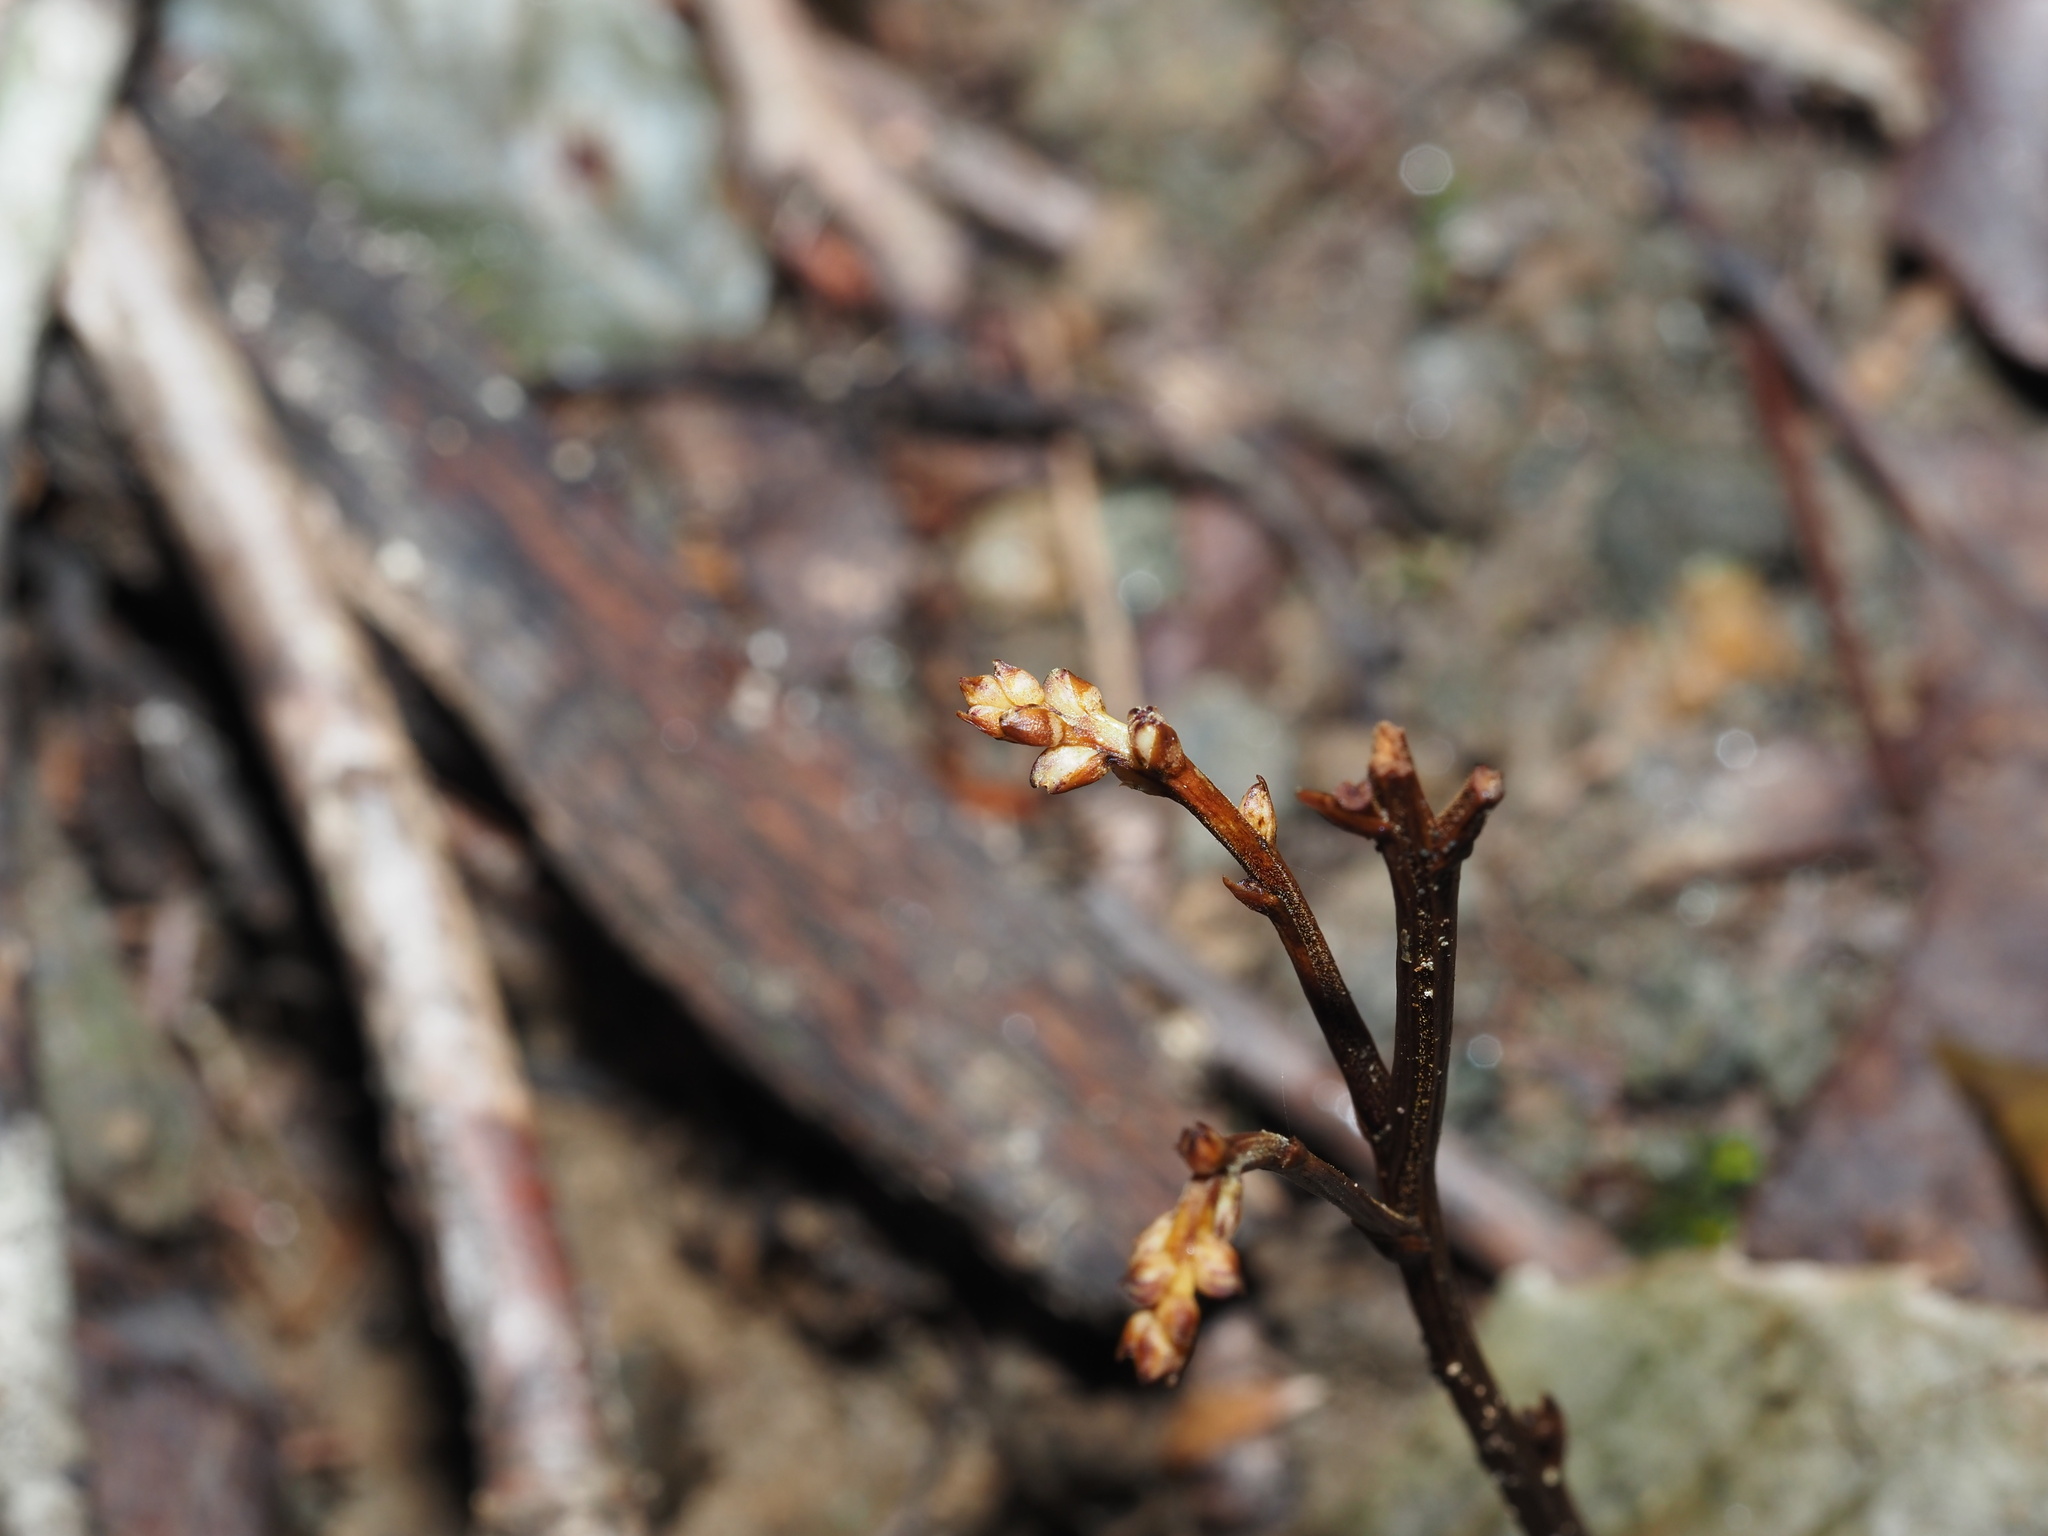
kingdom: Plantae
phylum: Tracheophyta
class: Magnoliopsida
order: Lamiales
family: Orobanchaceae
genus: Epifagus
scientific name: Epifagus virginiana
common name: Beechdrops
